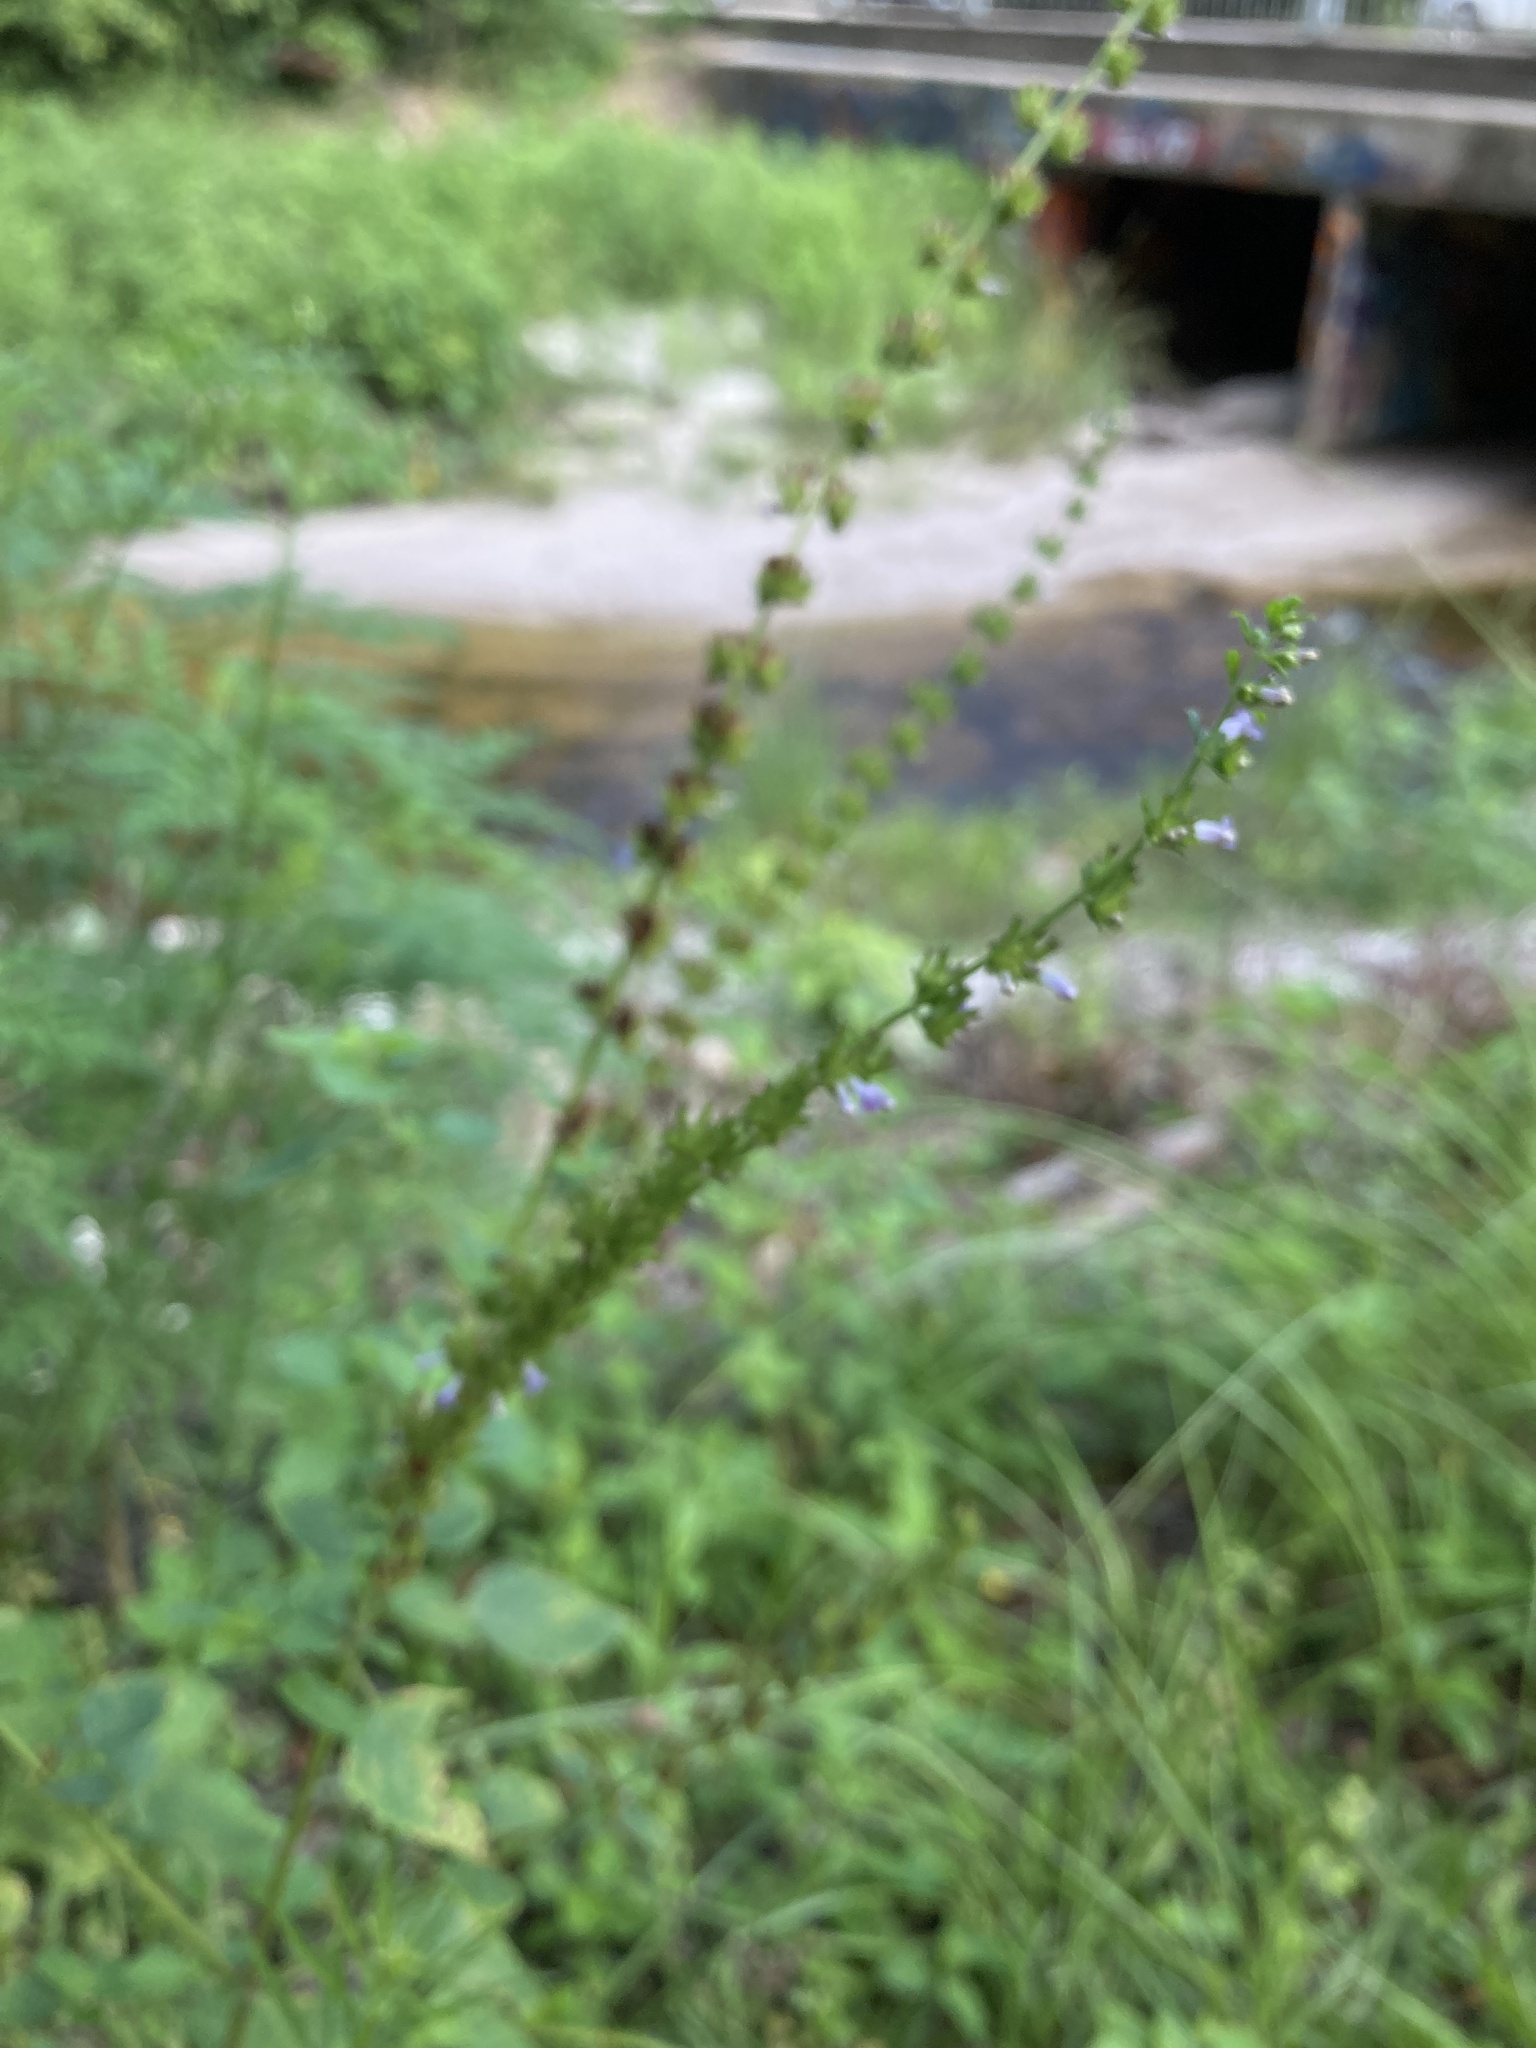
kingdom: Plantae
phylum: Tracheophyta
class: Magnoliopsida
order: Lamiales
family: Lamiaceae
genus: Cantinoa
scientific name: Cantinoa mutabilis
